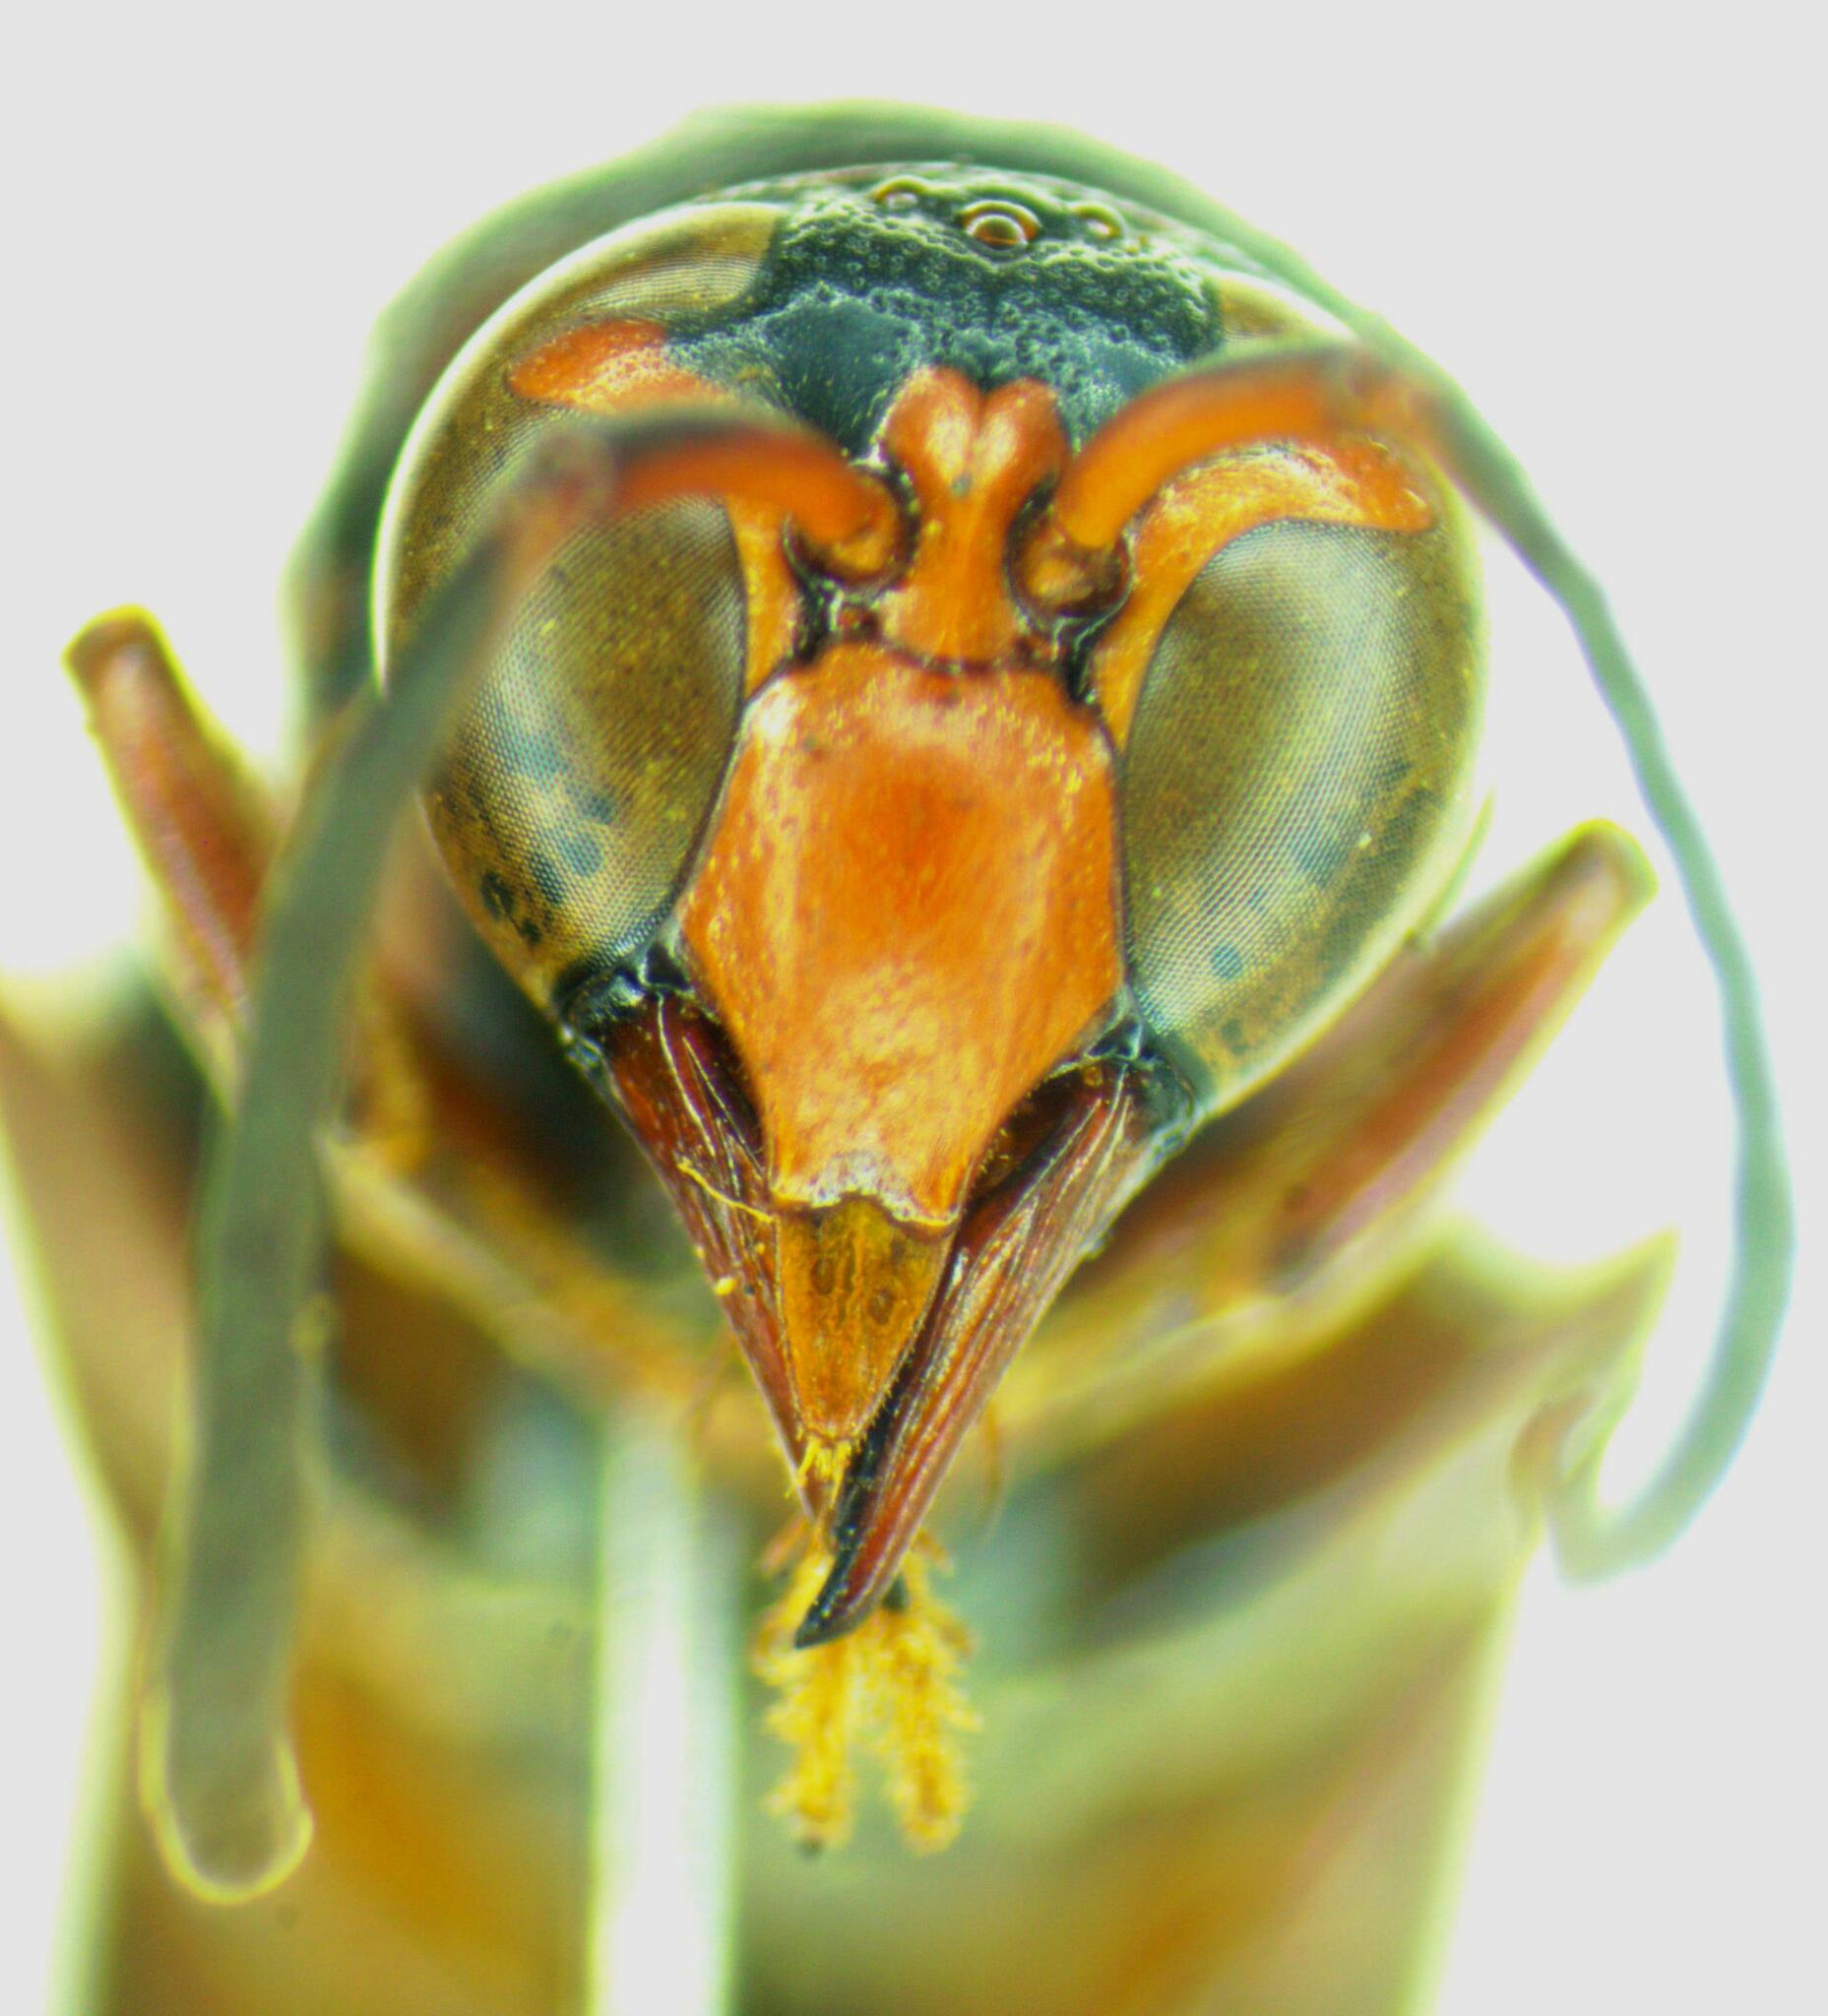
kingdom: Animalia
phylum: Arthropoda
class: Insecta
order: Hymenoptera
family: Eumenidae
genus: Brachymenes
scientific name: Brachymenes dyscherus
